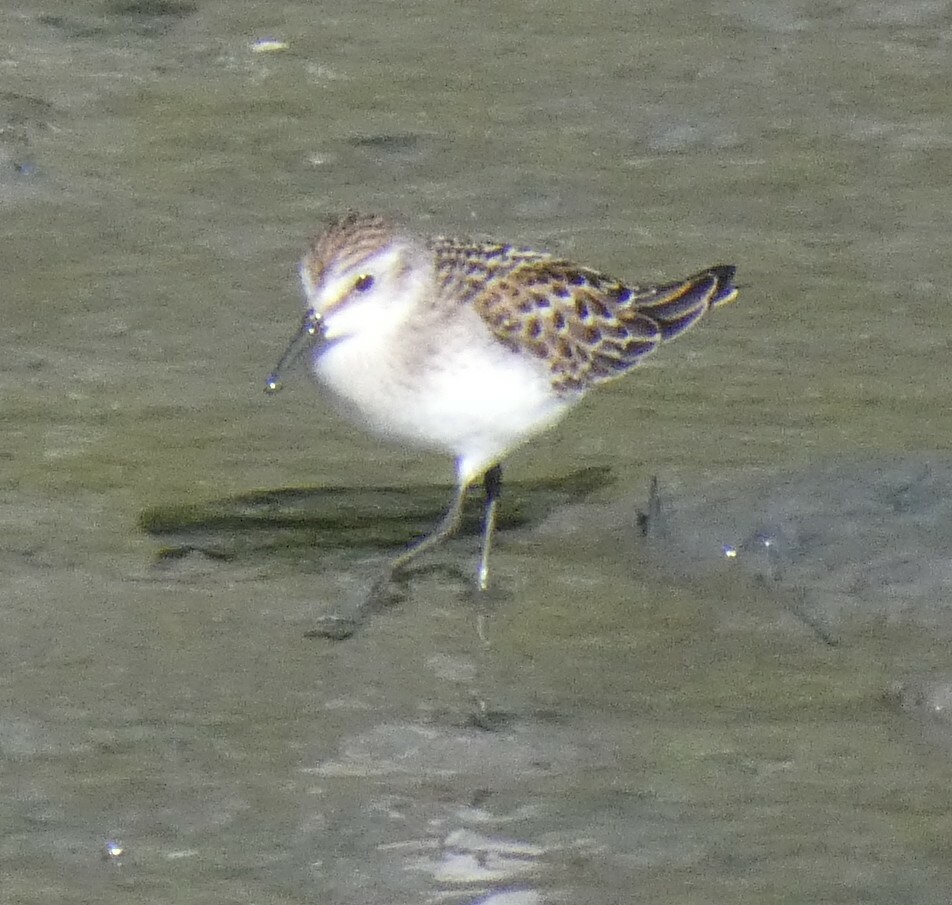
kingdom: Animalia
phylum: Chordata
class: Aves
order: Charadriiformes
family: Scolopacidae
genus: Calidris
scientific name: Calidris pusilla
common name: Semipalmated sandpiper
